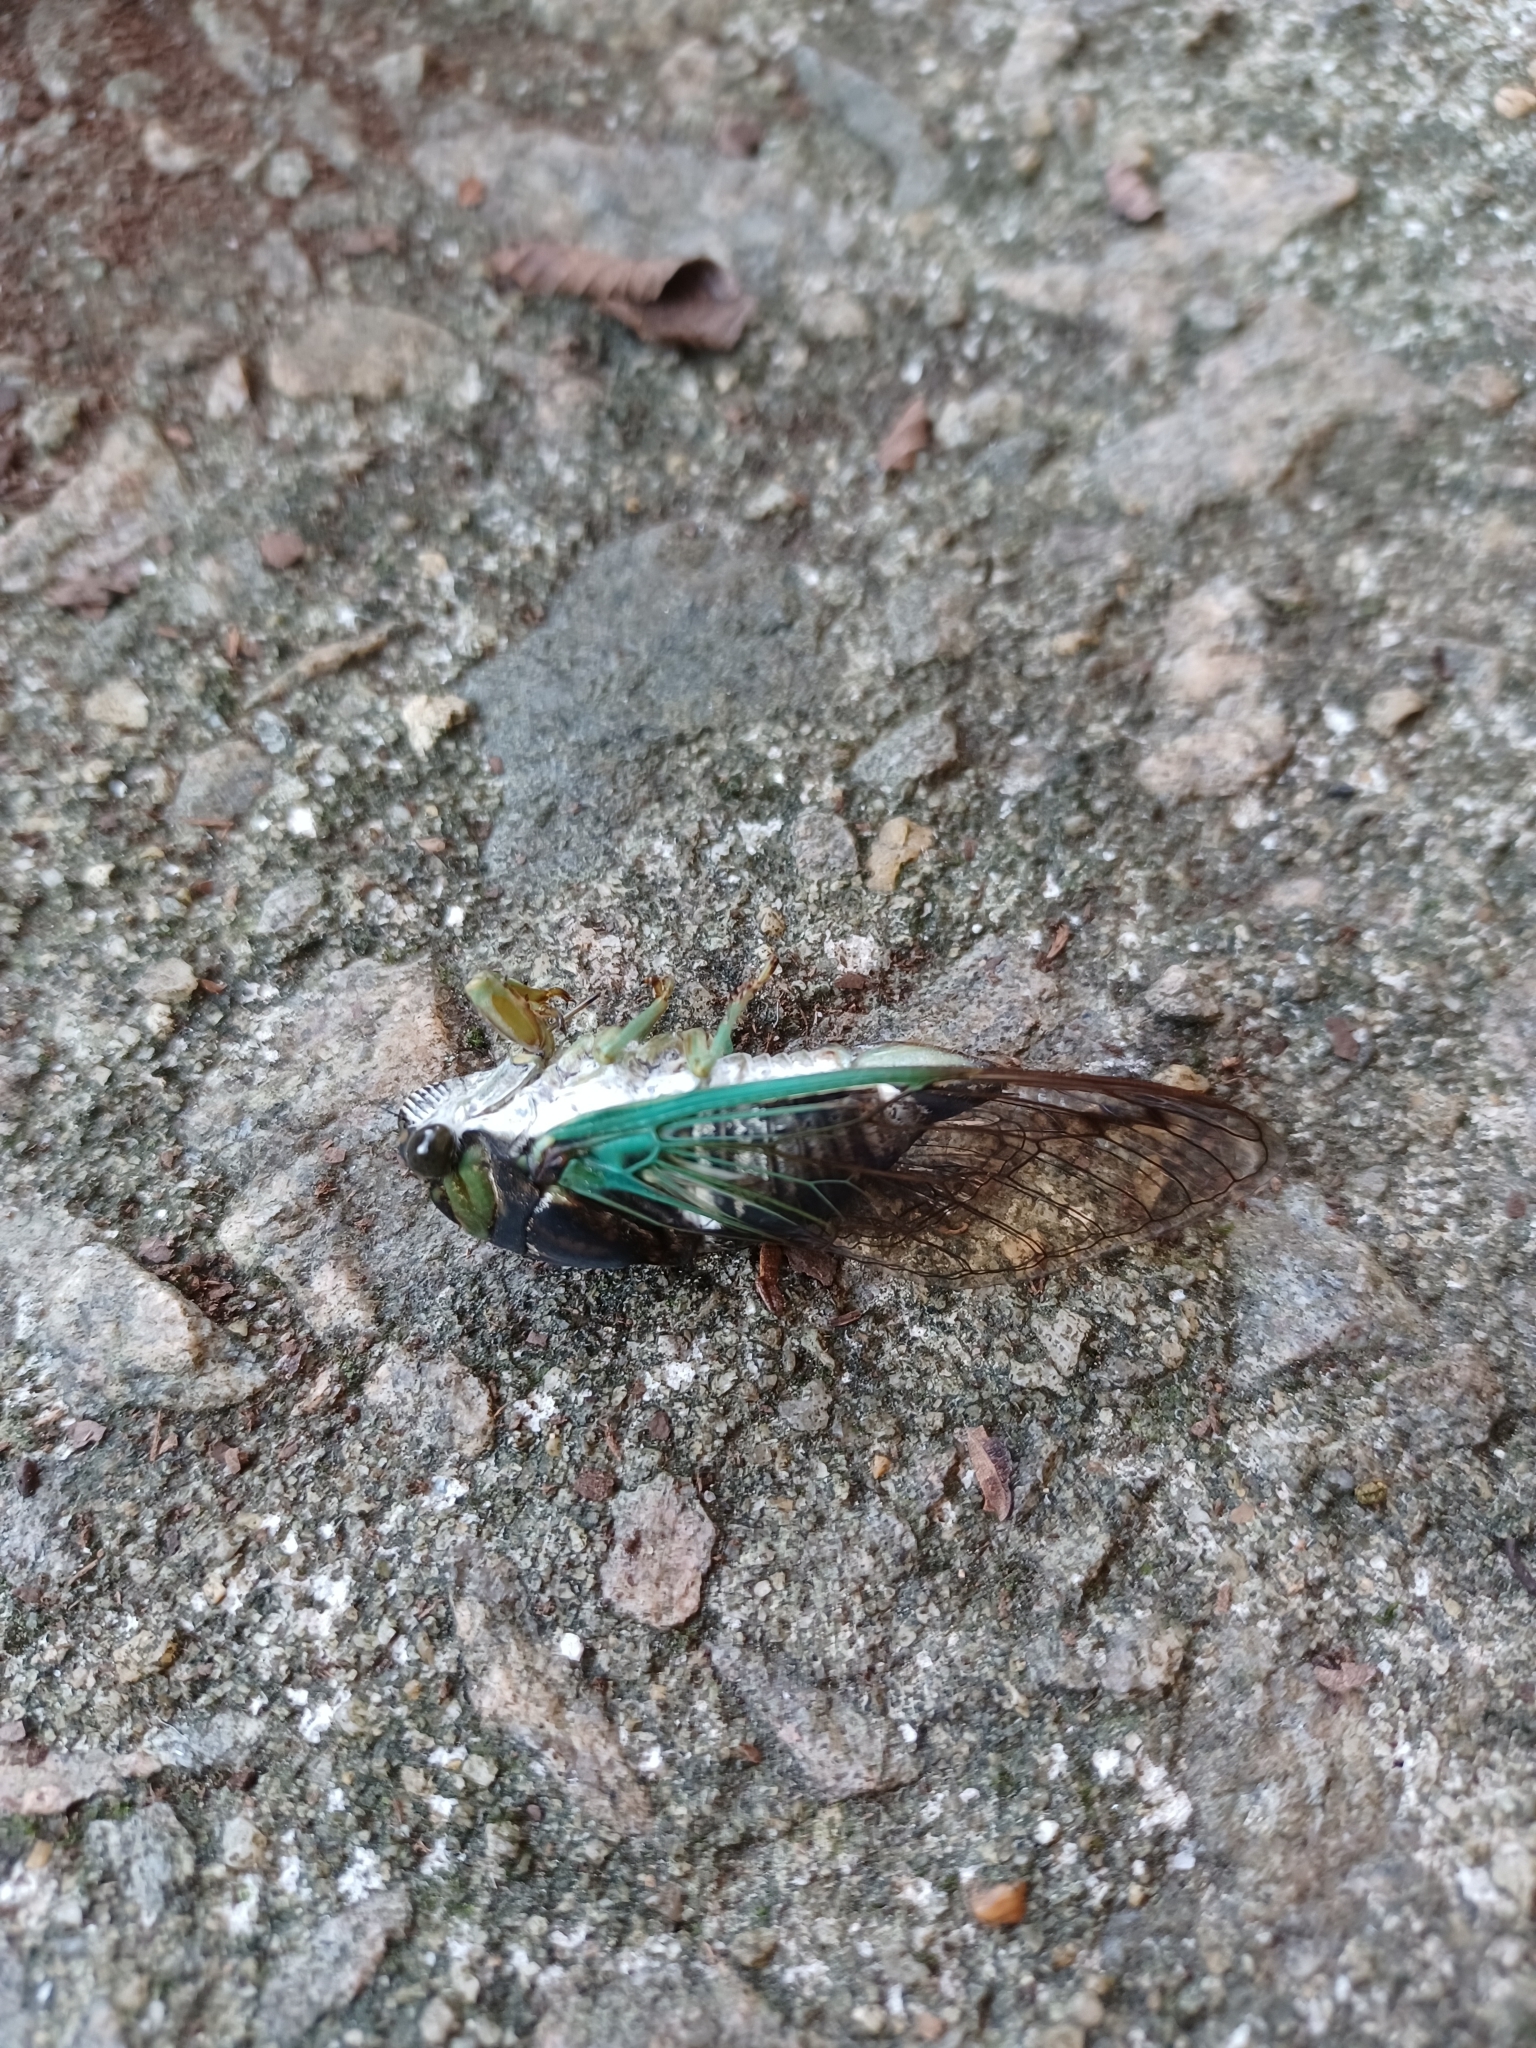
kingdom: Animalia
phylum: Arthropoda
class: Insecta
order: Hemiptera
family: Cicadidae
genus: Neotibicen
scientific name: Neotibicen tibicen
